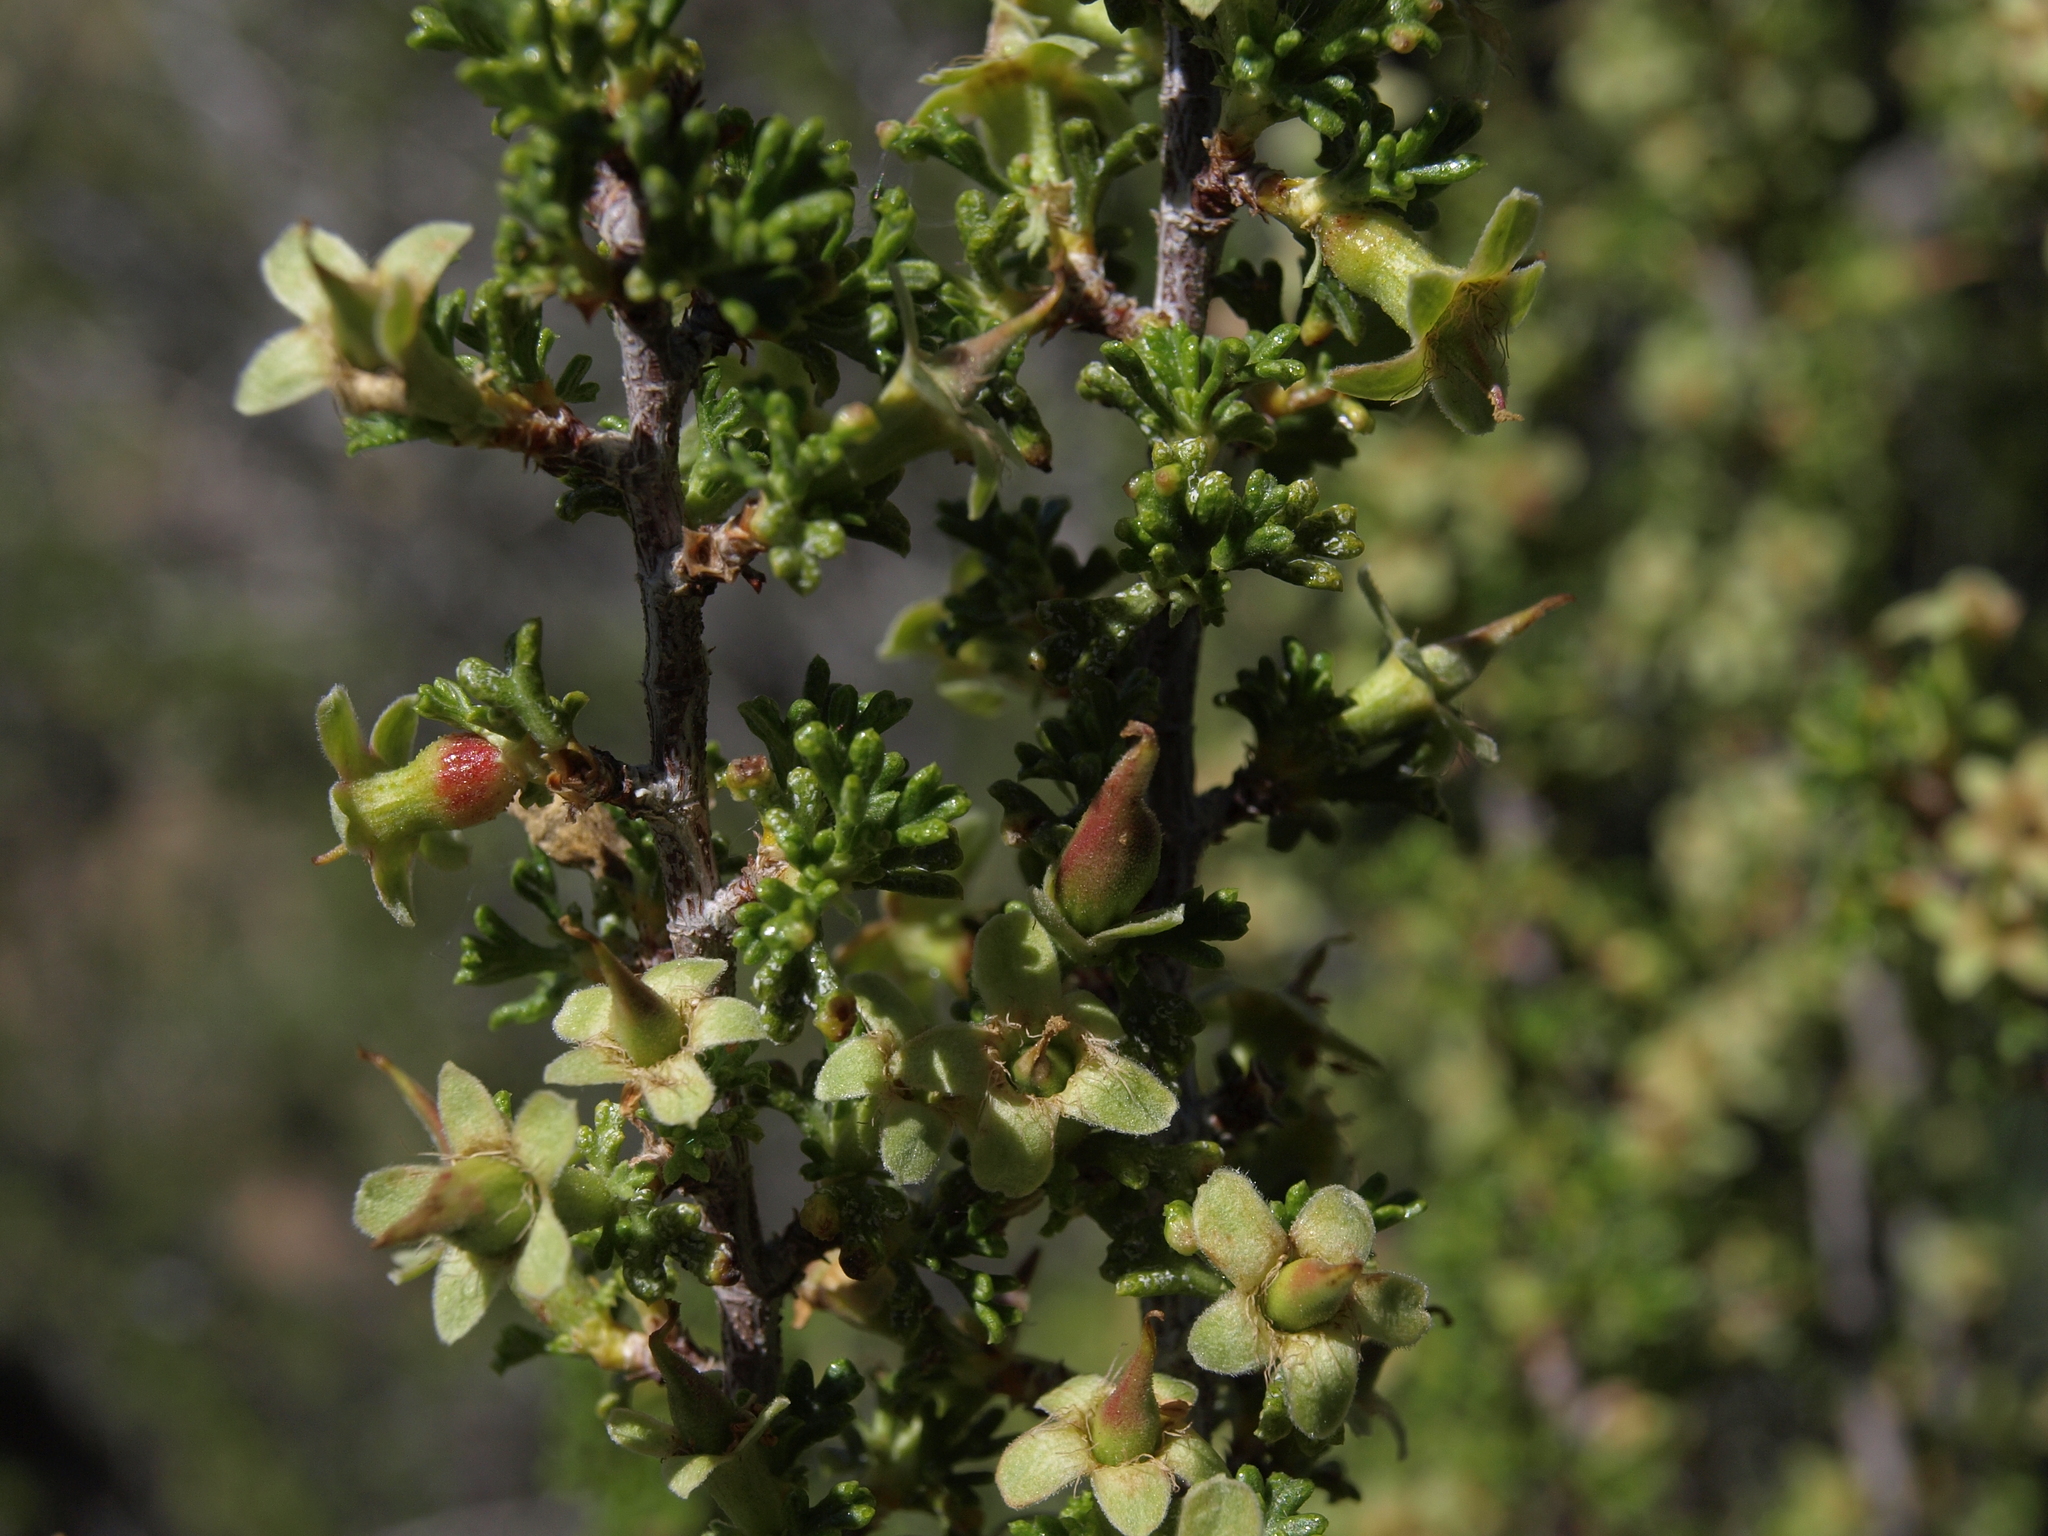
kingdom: Plantae
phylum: Tracheophyta
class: Magnoliopsida
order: Rosales
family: Rosaceae
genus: Purshia
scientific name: Purshia glandulosa
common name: Desert bitterbrush
